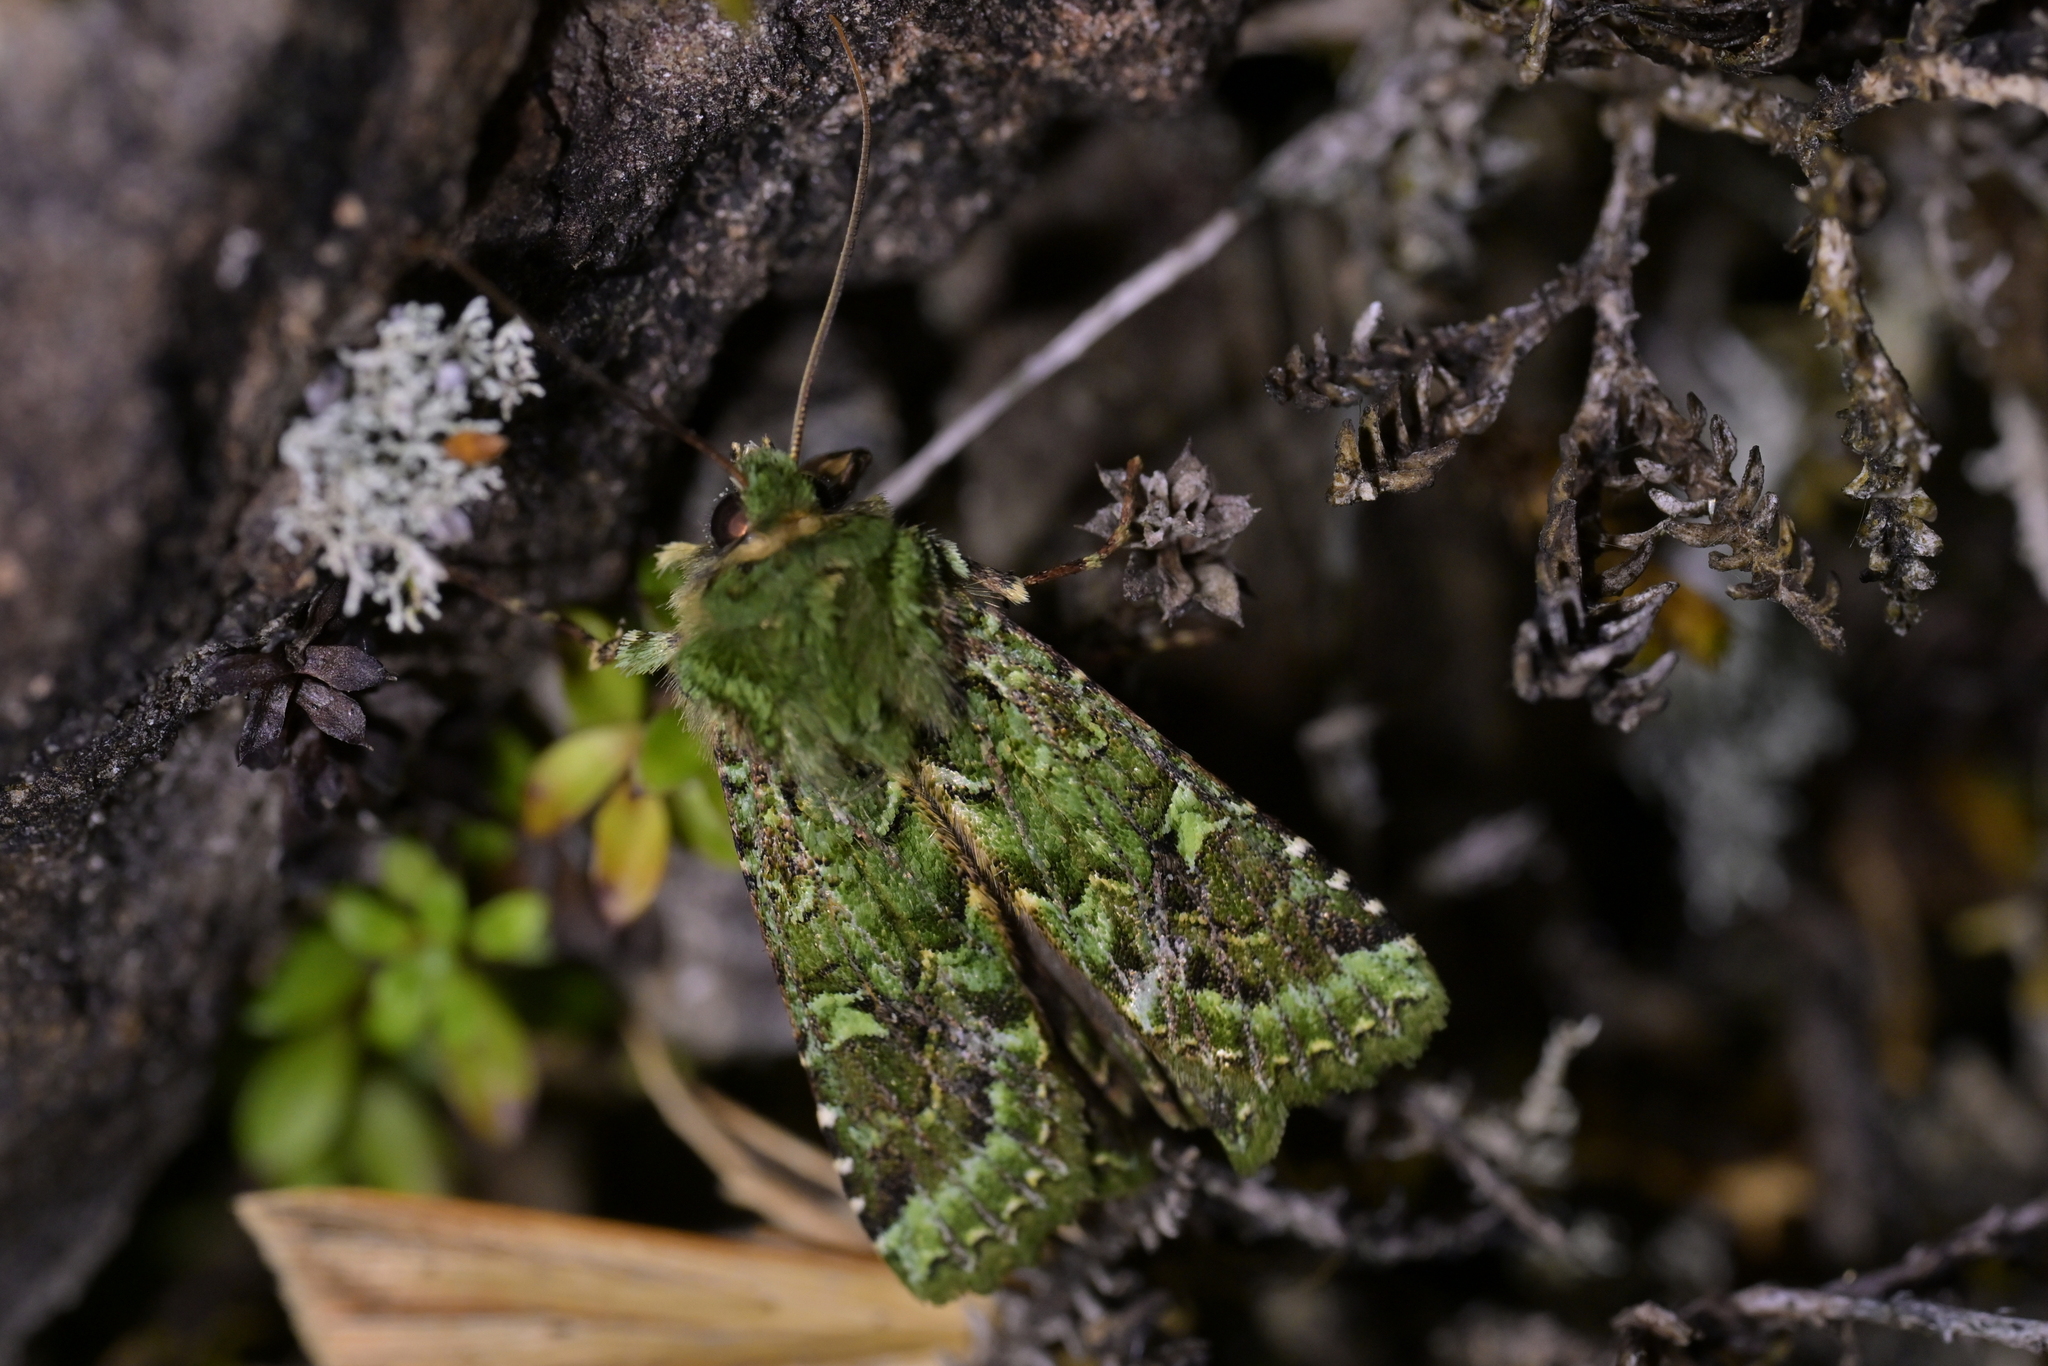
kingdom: Animalia
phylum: Arthropoda
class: Insecta
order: Lepidoptera
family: Noctuidae
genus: Feredayia
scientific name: Feredayia grammosa
